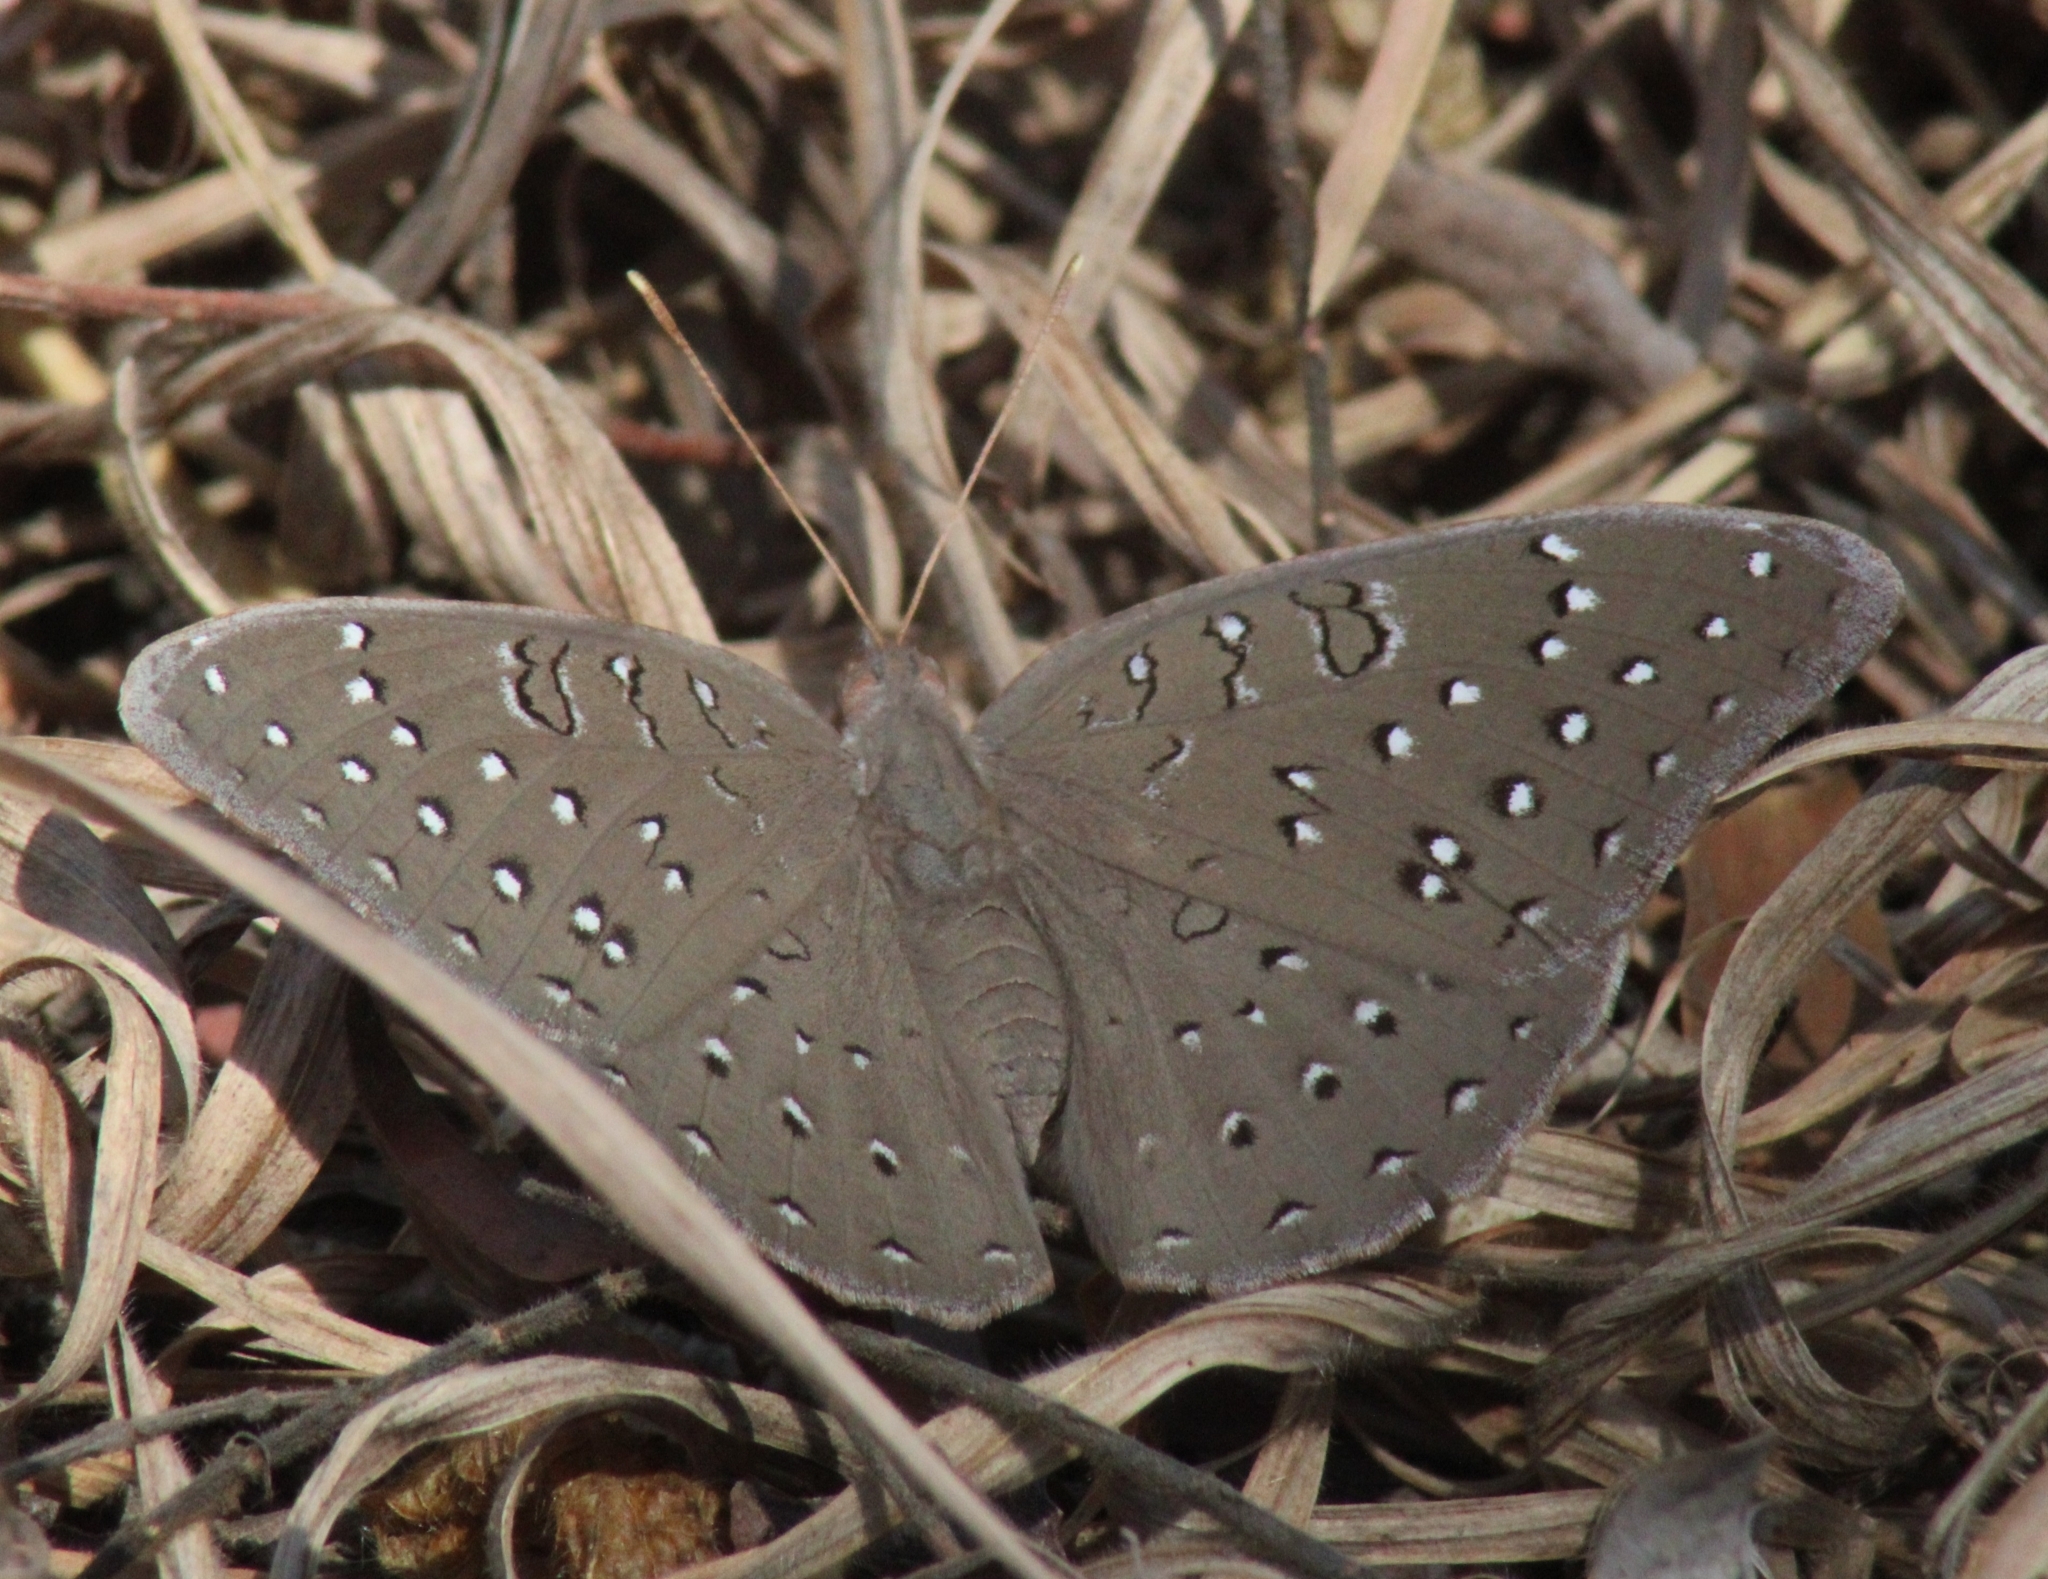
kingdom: Animalia
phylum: Arthropoda
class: Insecta
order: Lepidoptera
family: Nymphalidae
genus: Hamanumida
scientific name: Hamanumida daedalus
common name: Guinea-fowl butterfly
